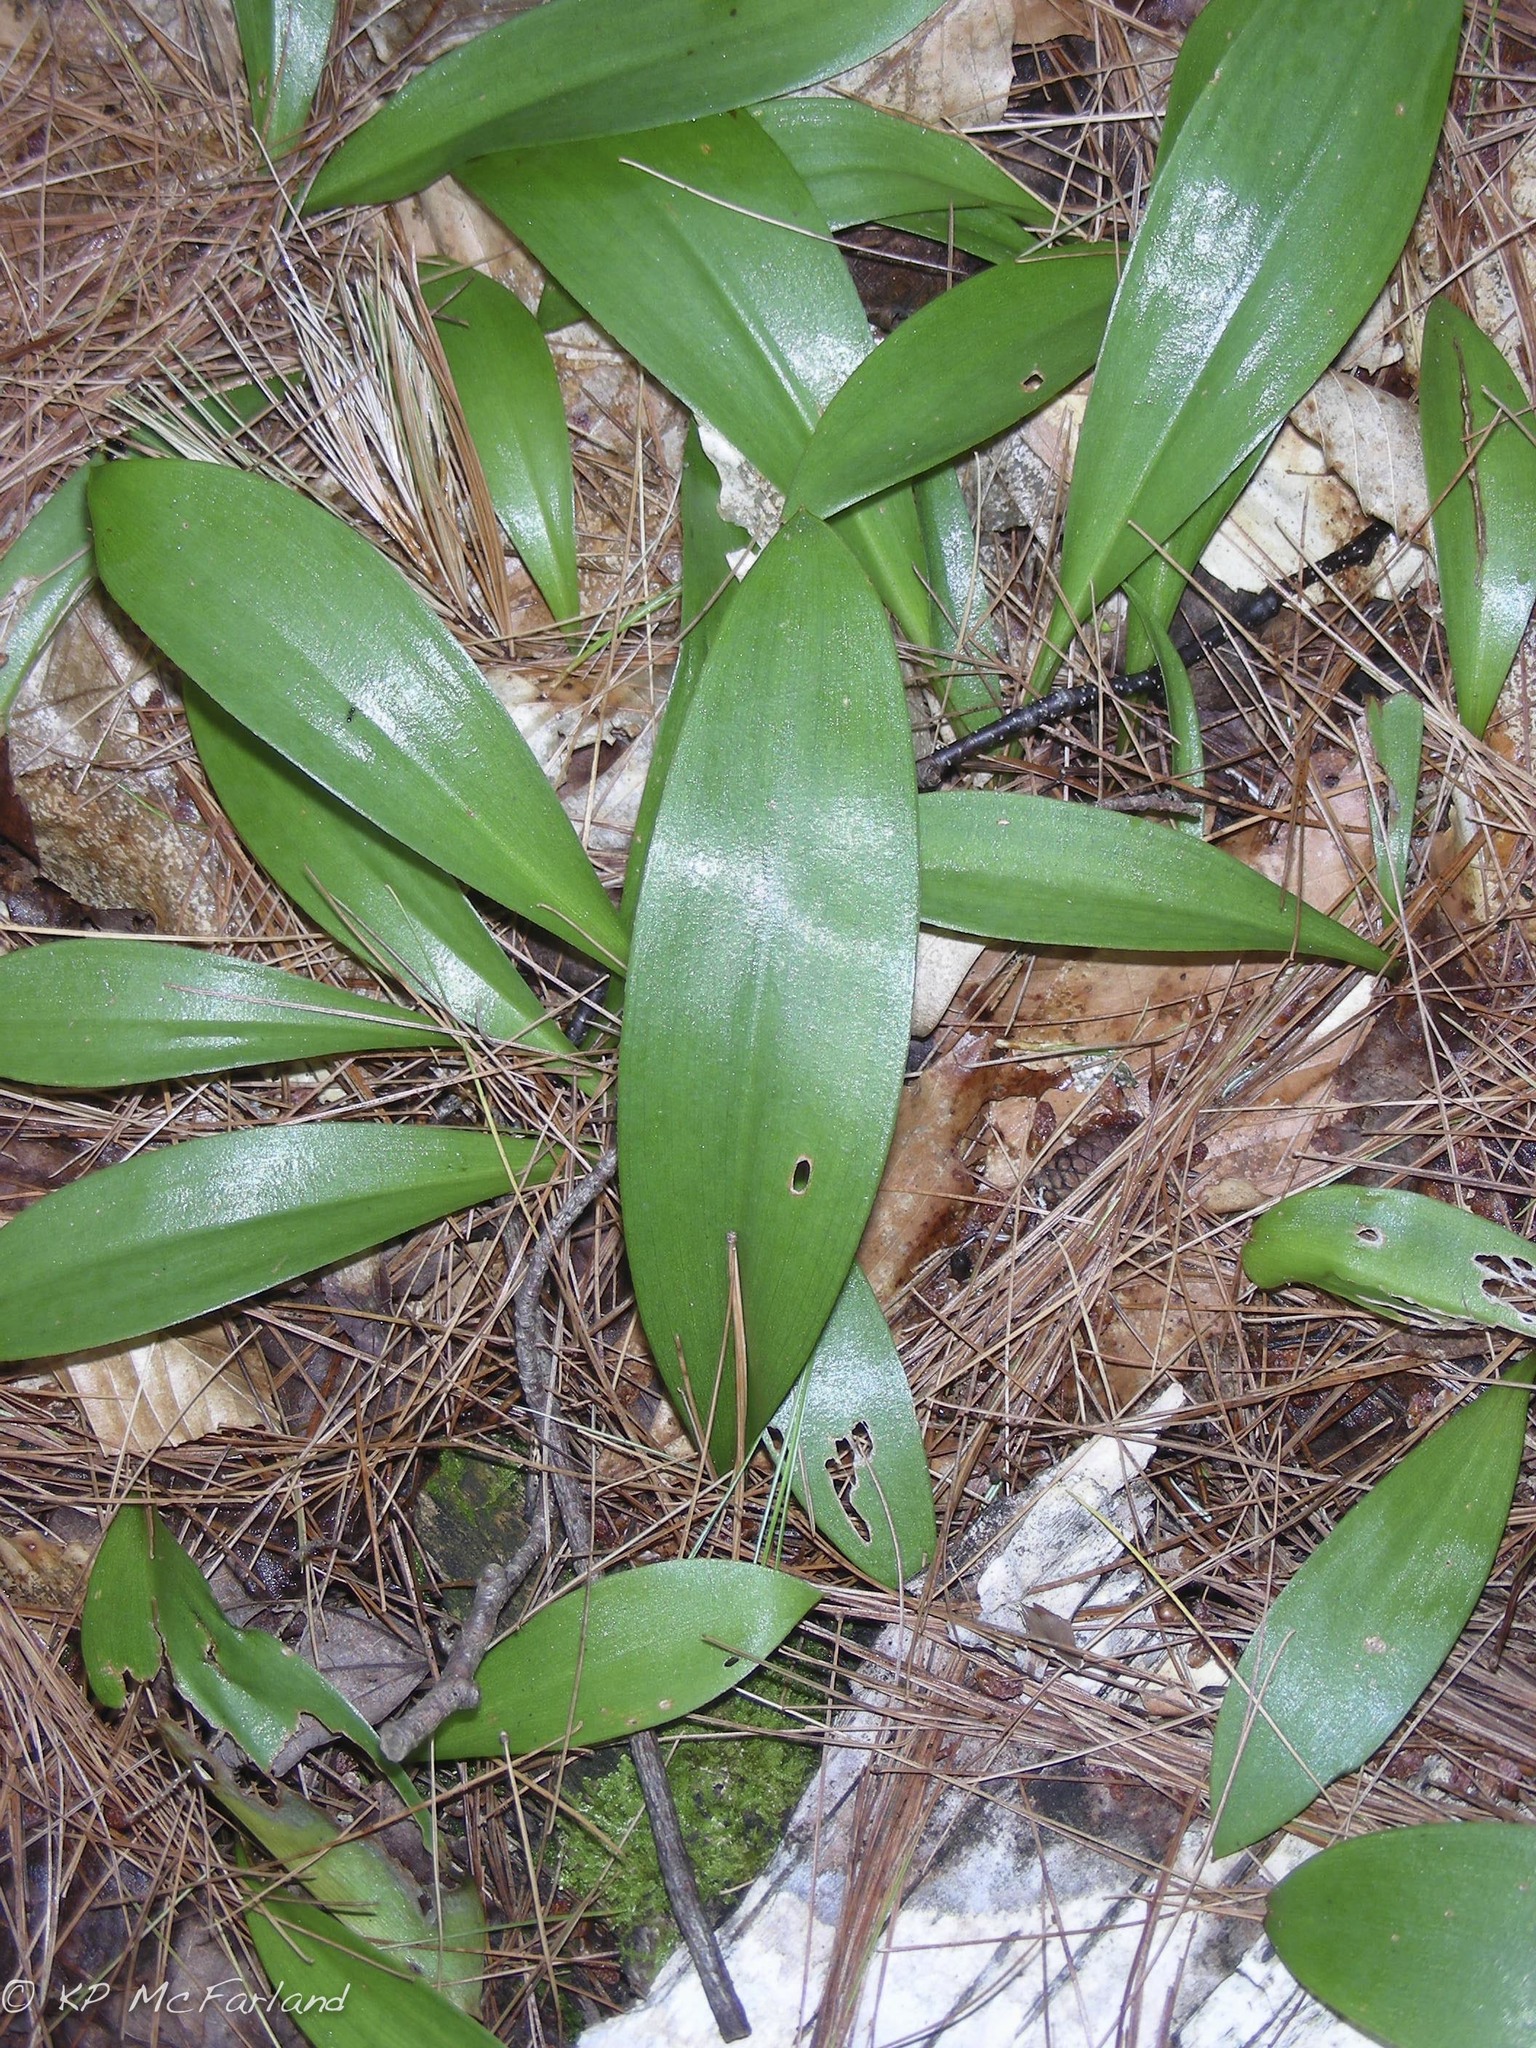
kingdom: Plantae
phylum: Tracheophyta
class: Liliopsida
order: Liliales
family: Liliaceae
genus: Clintonia
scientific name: Clintonia borealis
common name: Yellow clintonia
